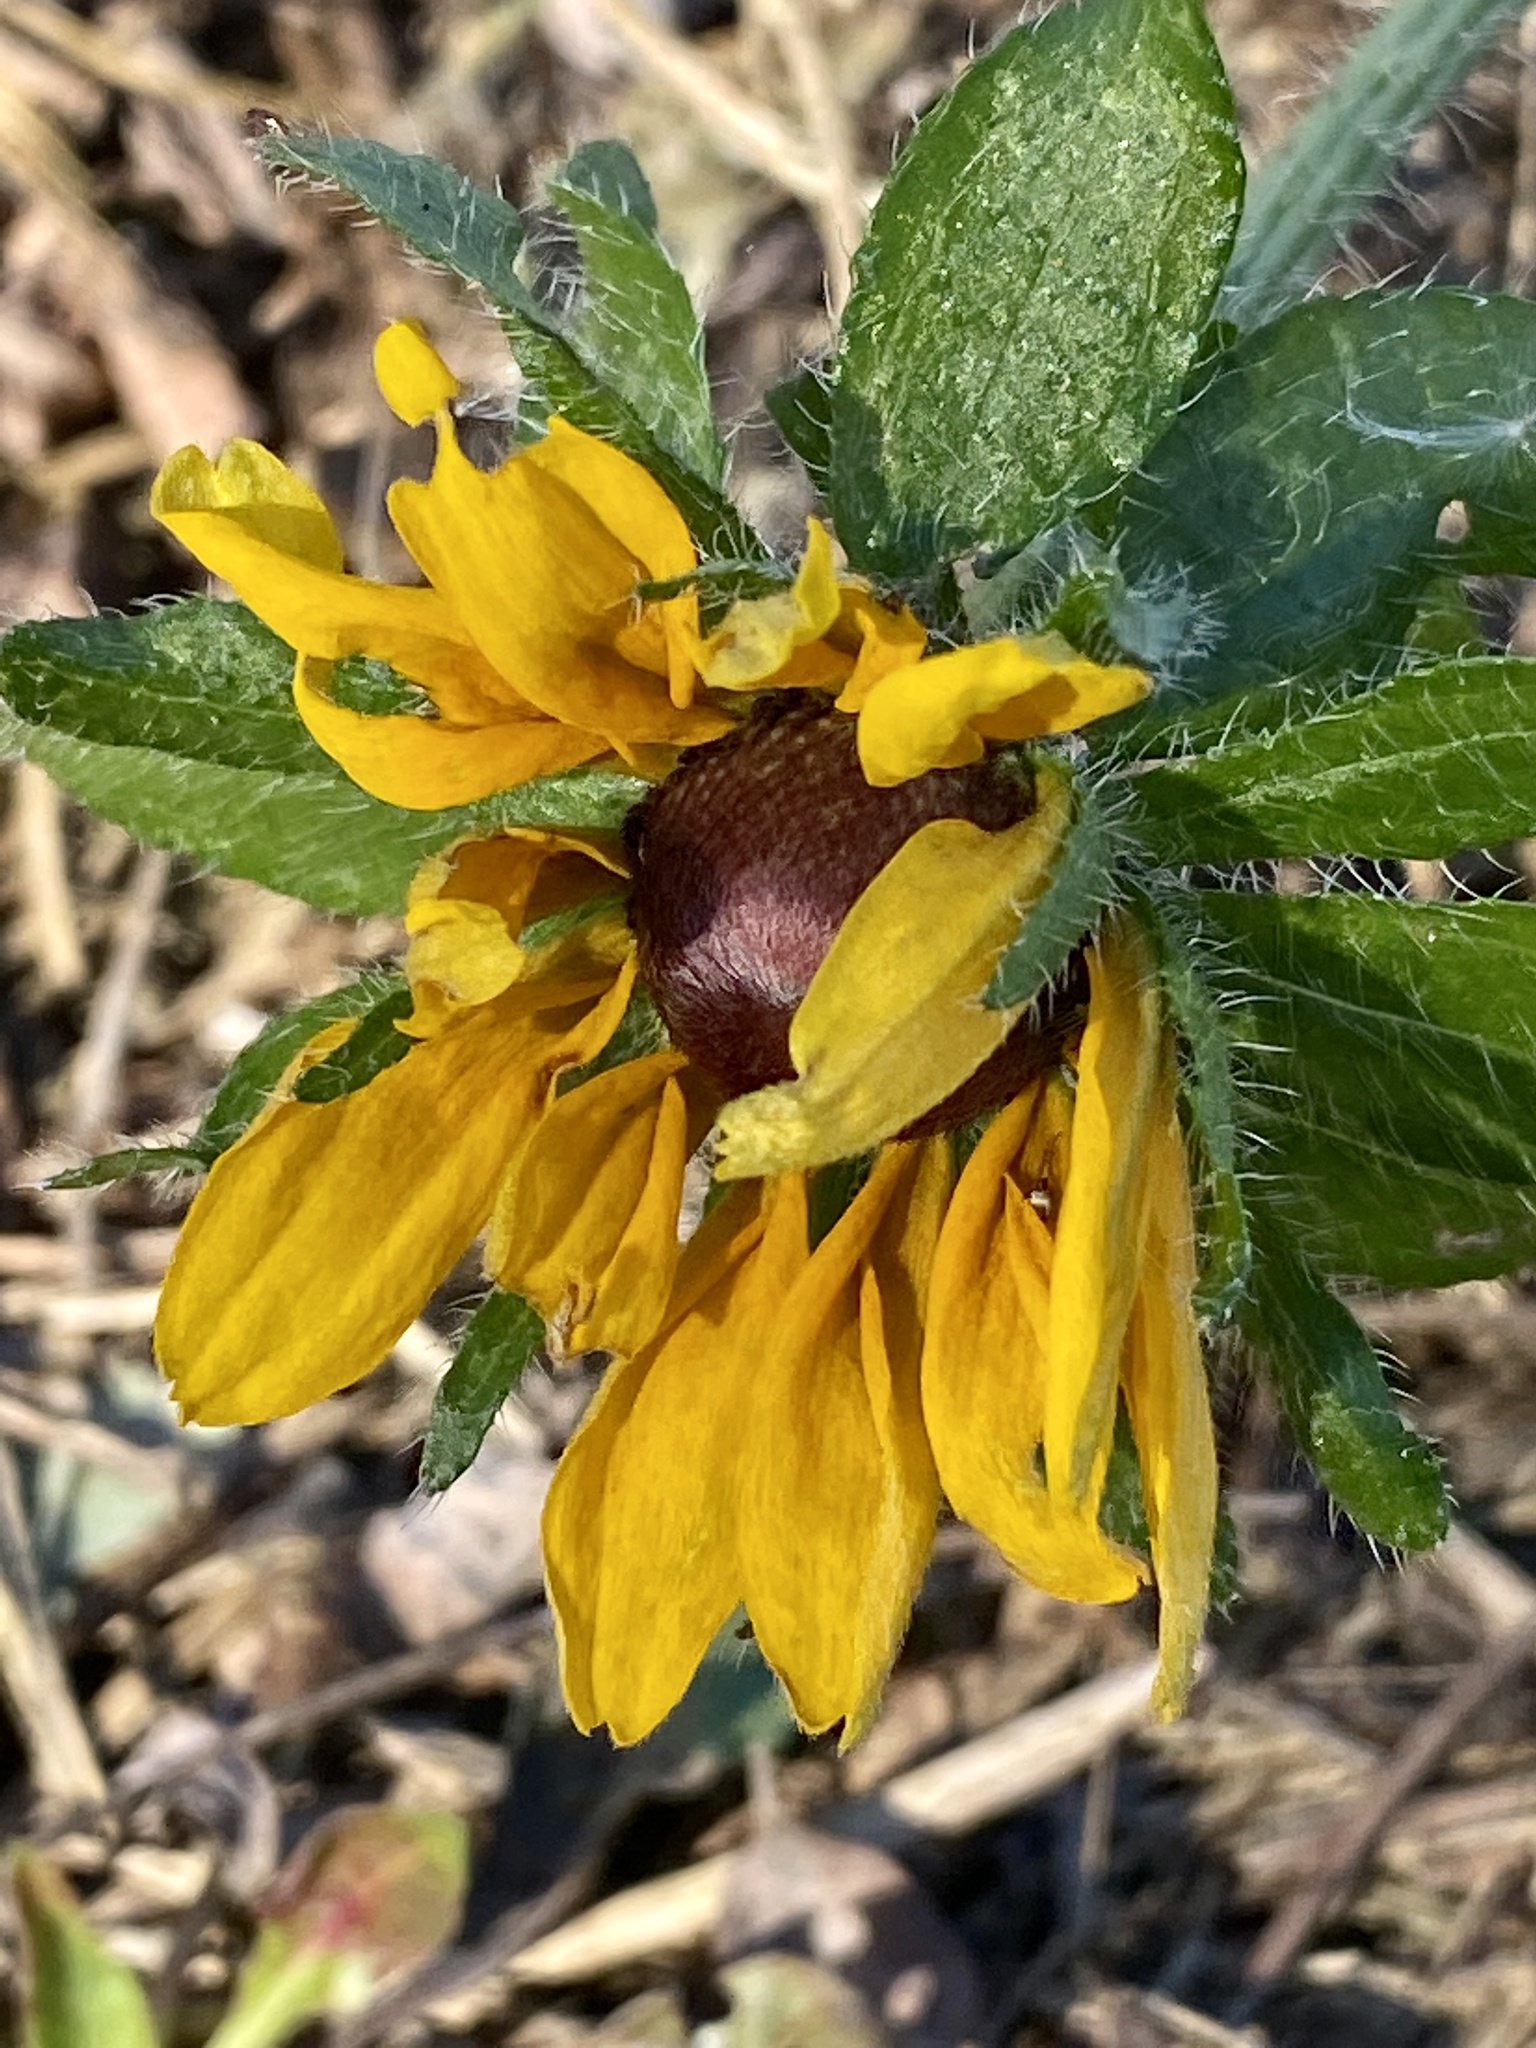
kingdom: Plantae
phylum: Tracheophyta
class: Magnoliopsida
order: Asterales
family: Asteraceae
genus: Rudbeckia
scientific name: Rudbeckia hirta
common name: Black-eyed-susan
